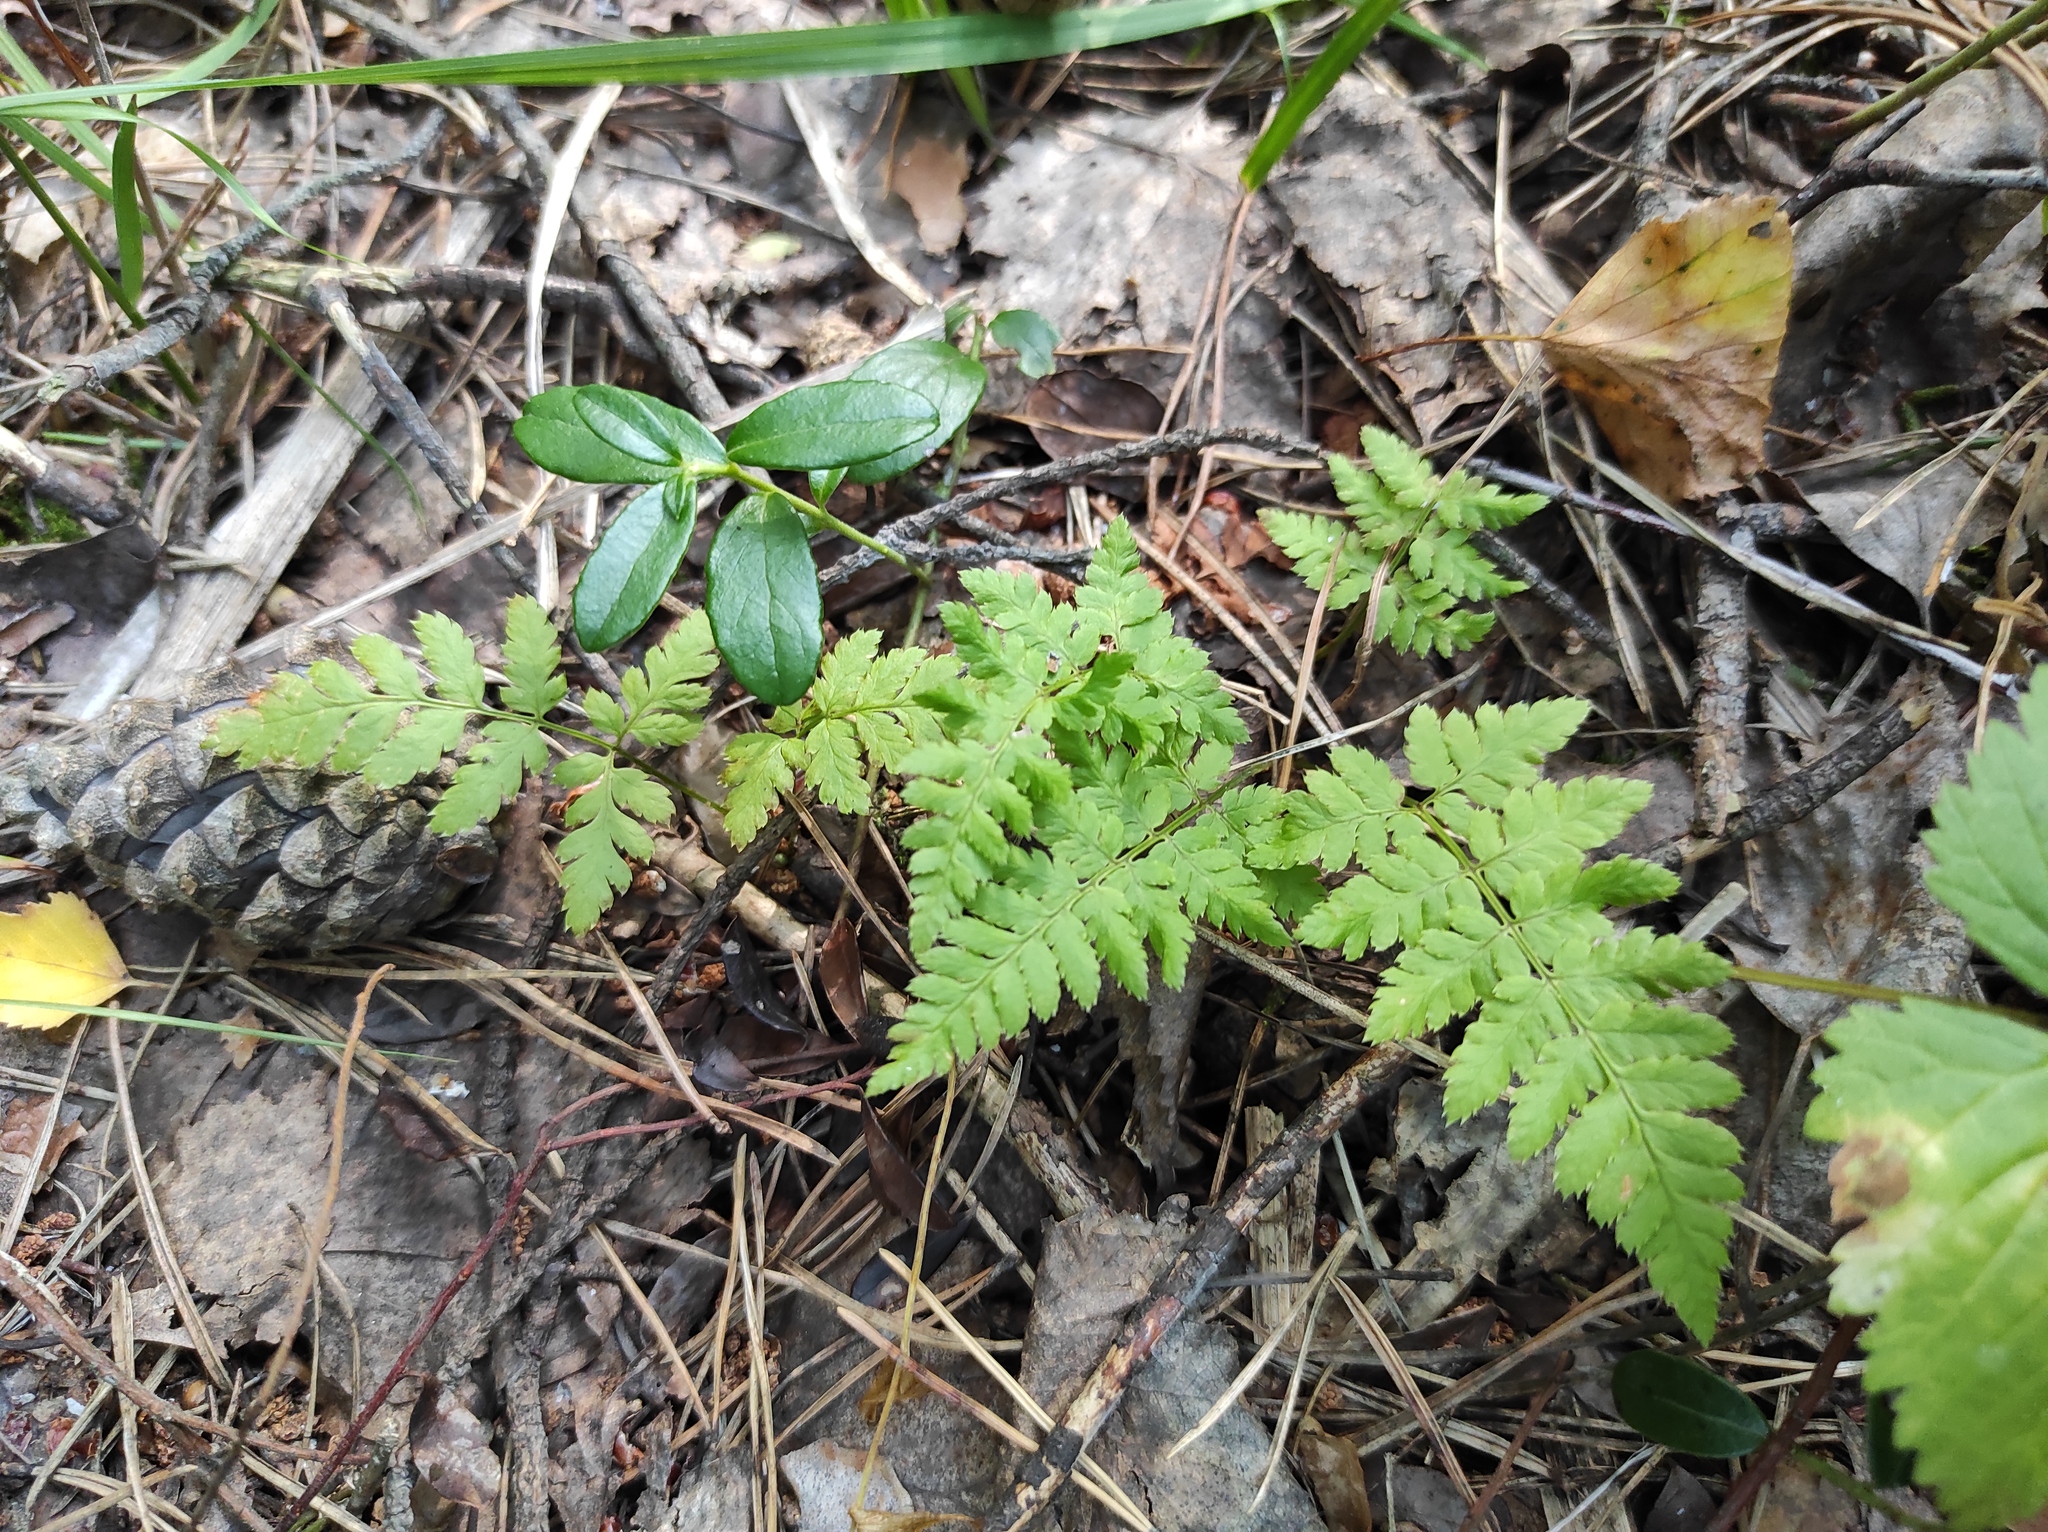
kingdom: Plantae
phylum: Tracheophyta
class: Polypodiopsida
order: Polypodiales
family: Dryopteridaceae
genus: Dryopteris
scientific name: Dryopteris carthusiana
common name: Narrow buckler-fern
